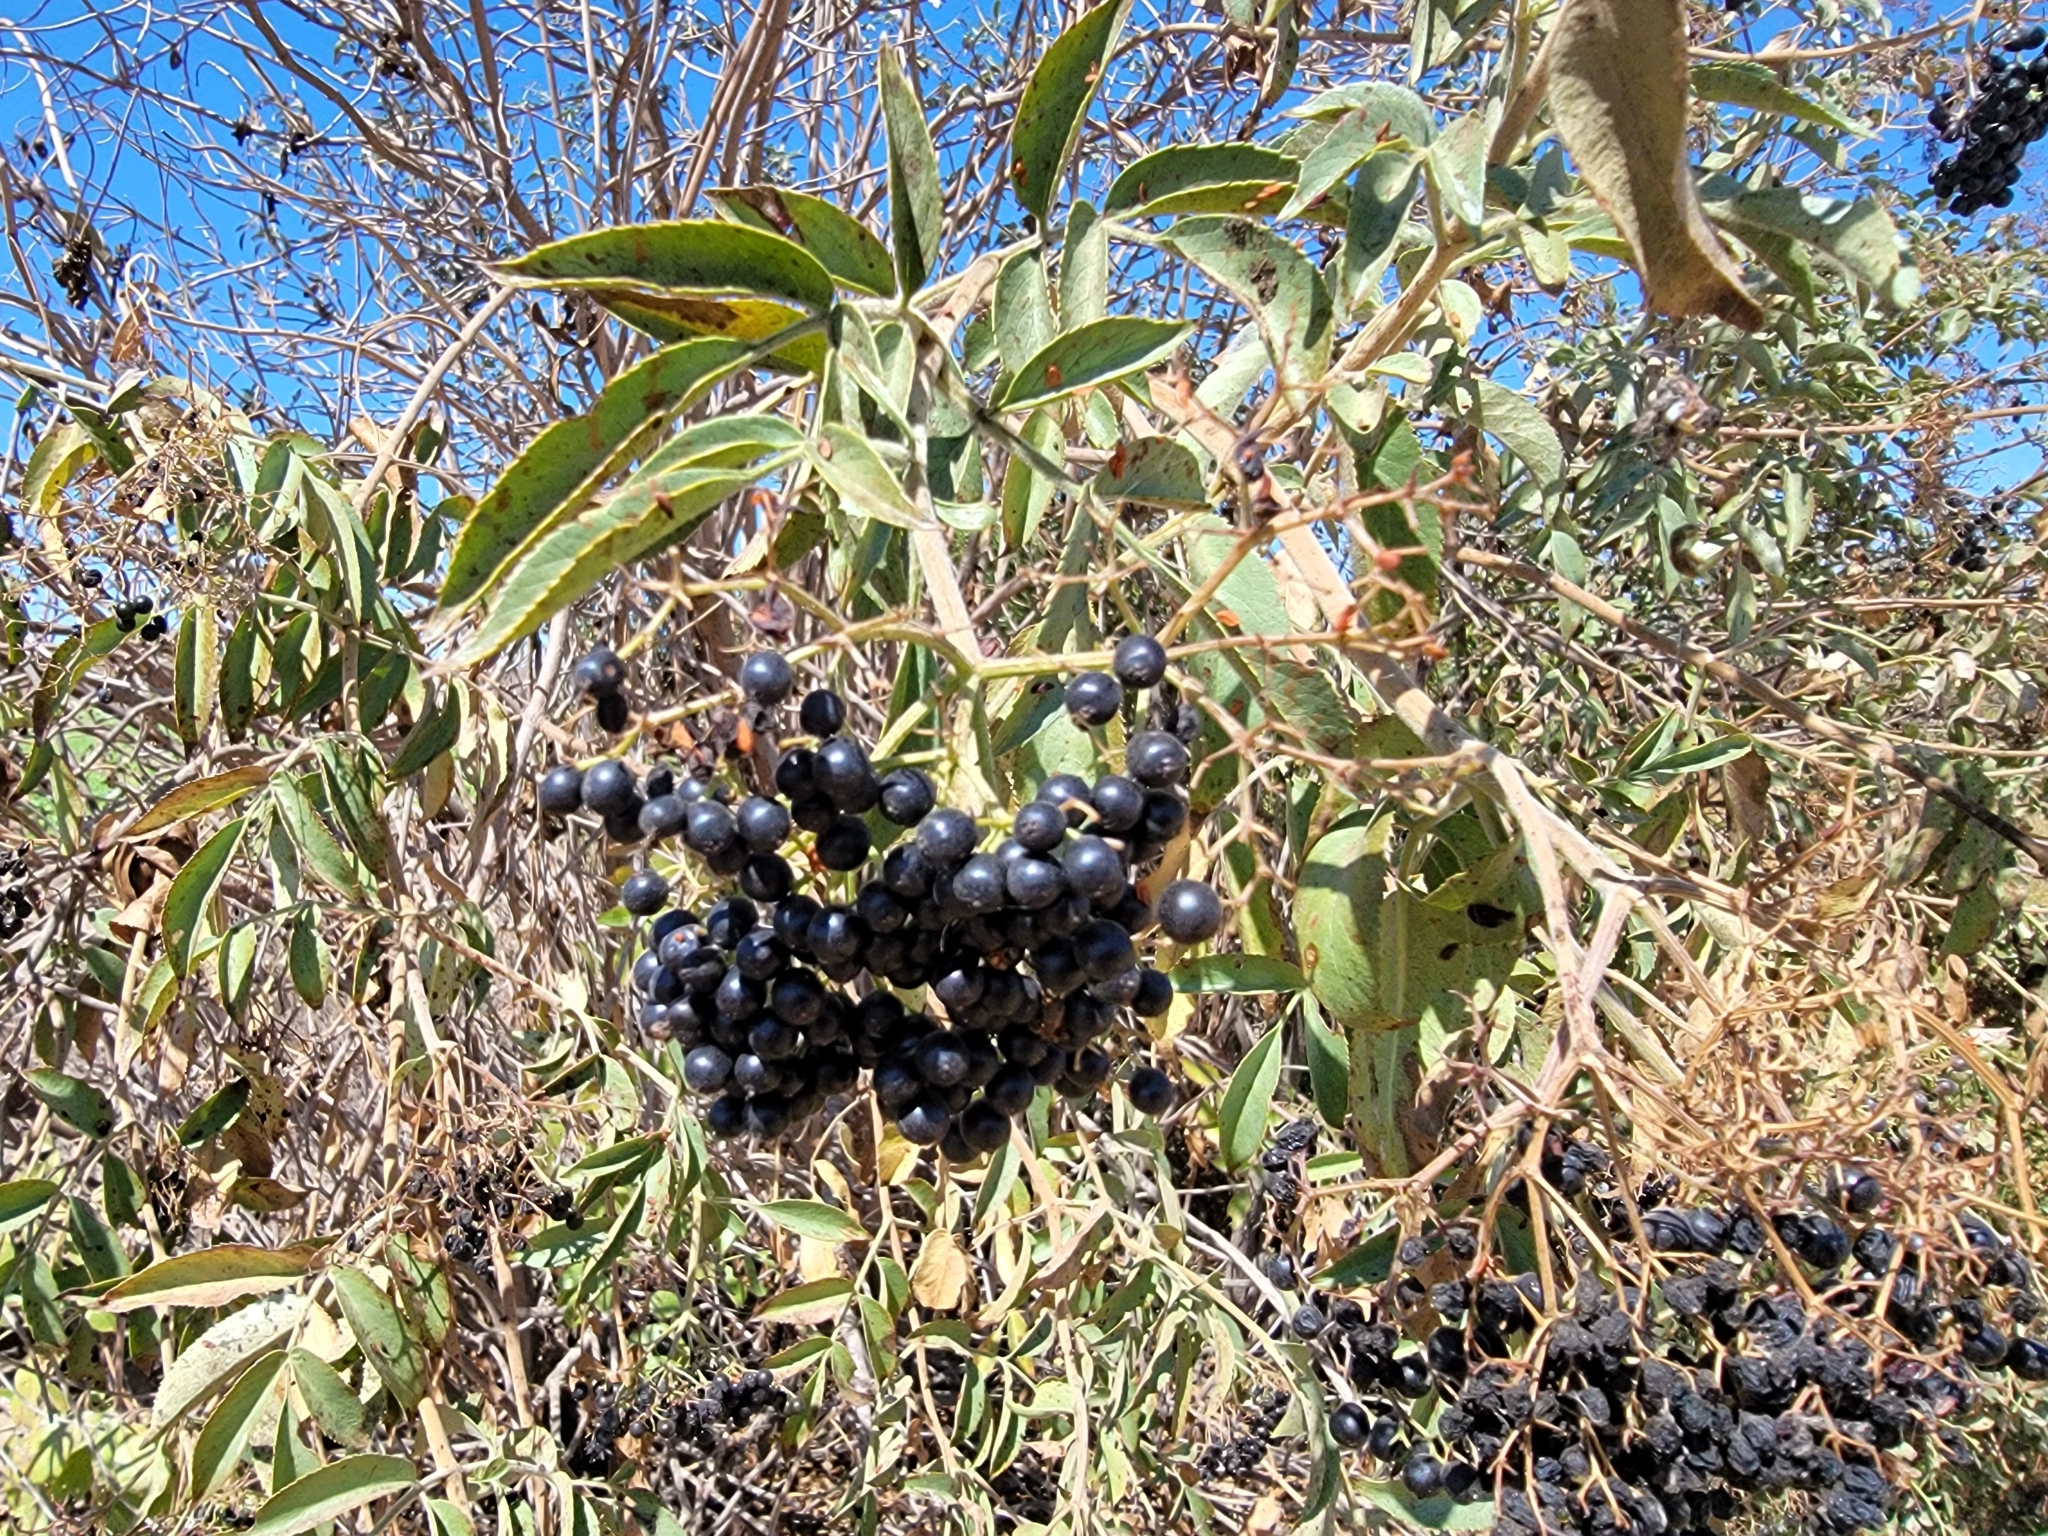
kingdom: Plantae
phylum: Tracheophyta
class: Magnoliopsida
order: Dipsacales
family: Viburnaceae
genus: Sambucus
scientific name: Sambucus cerulea
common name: Blue elder
